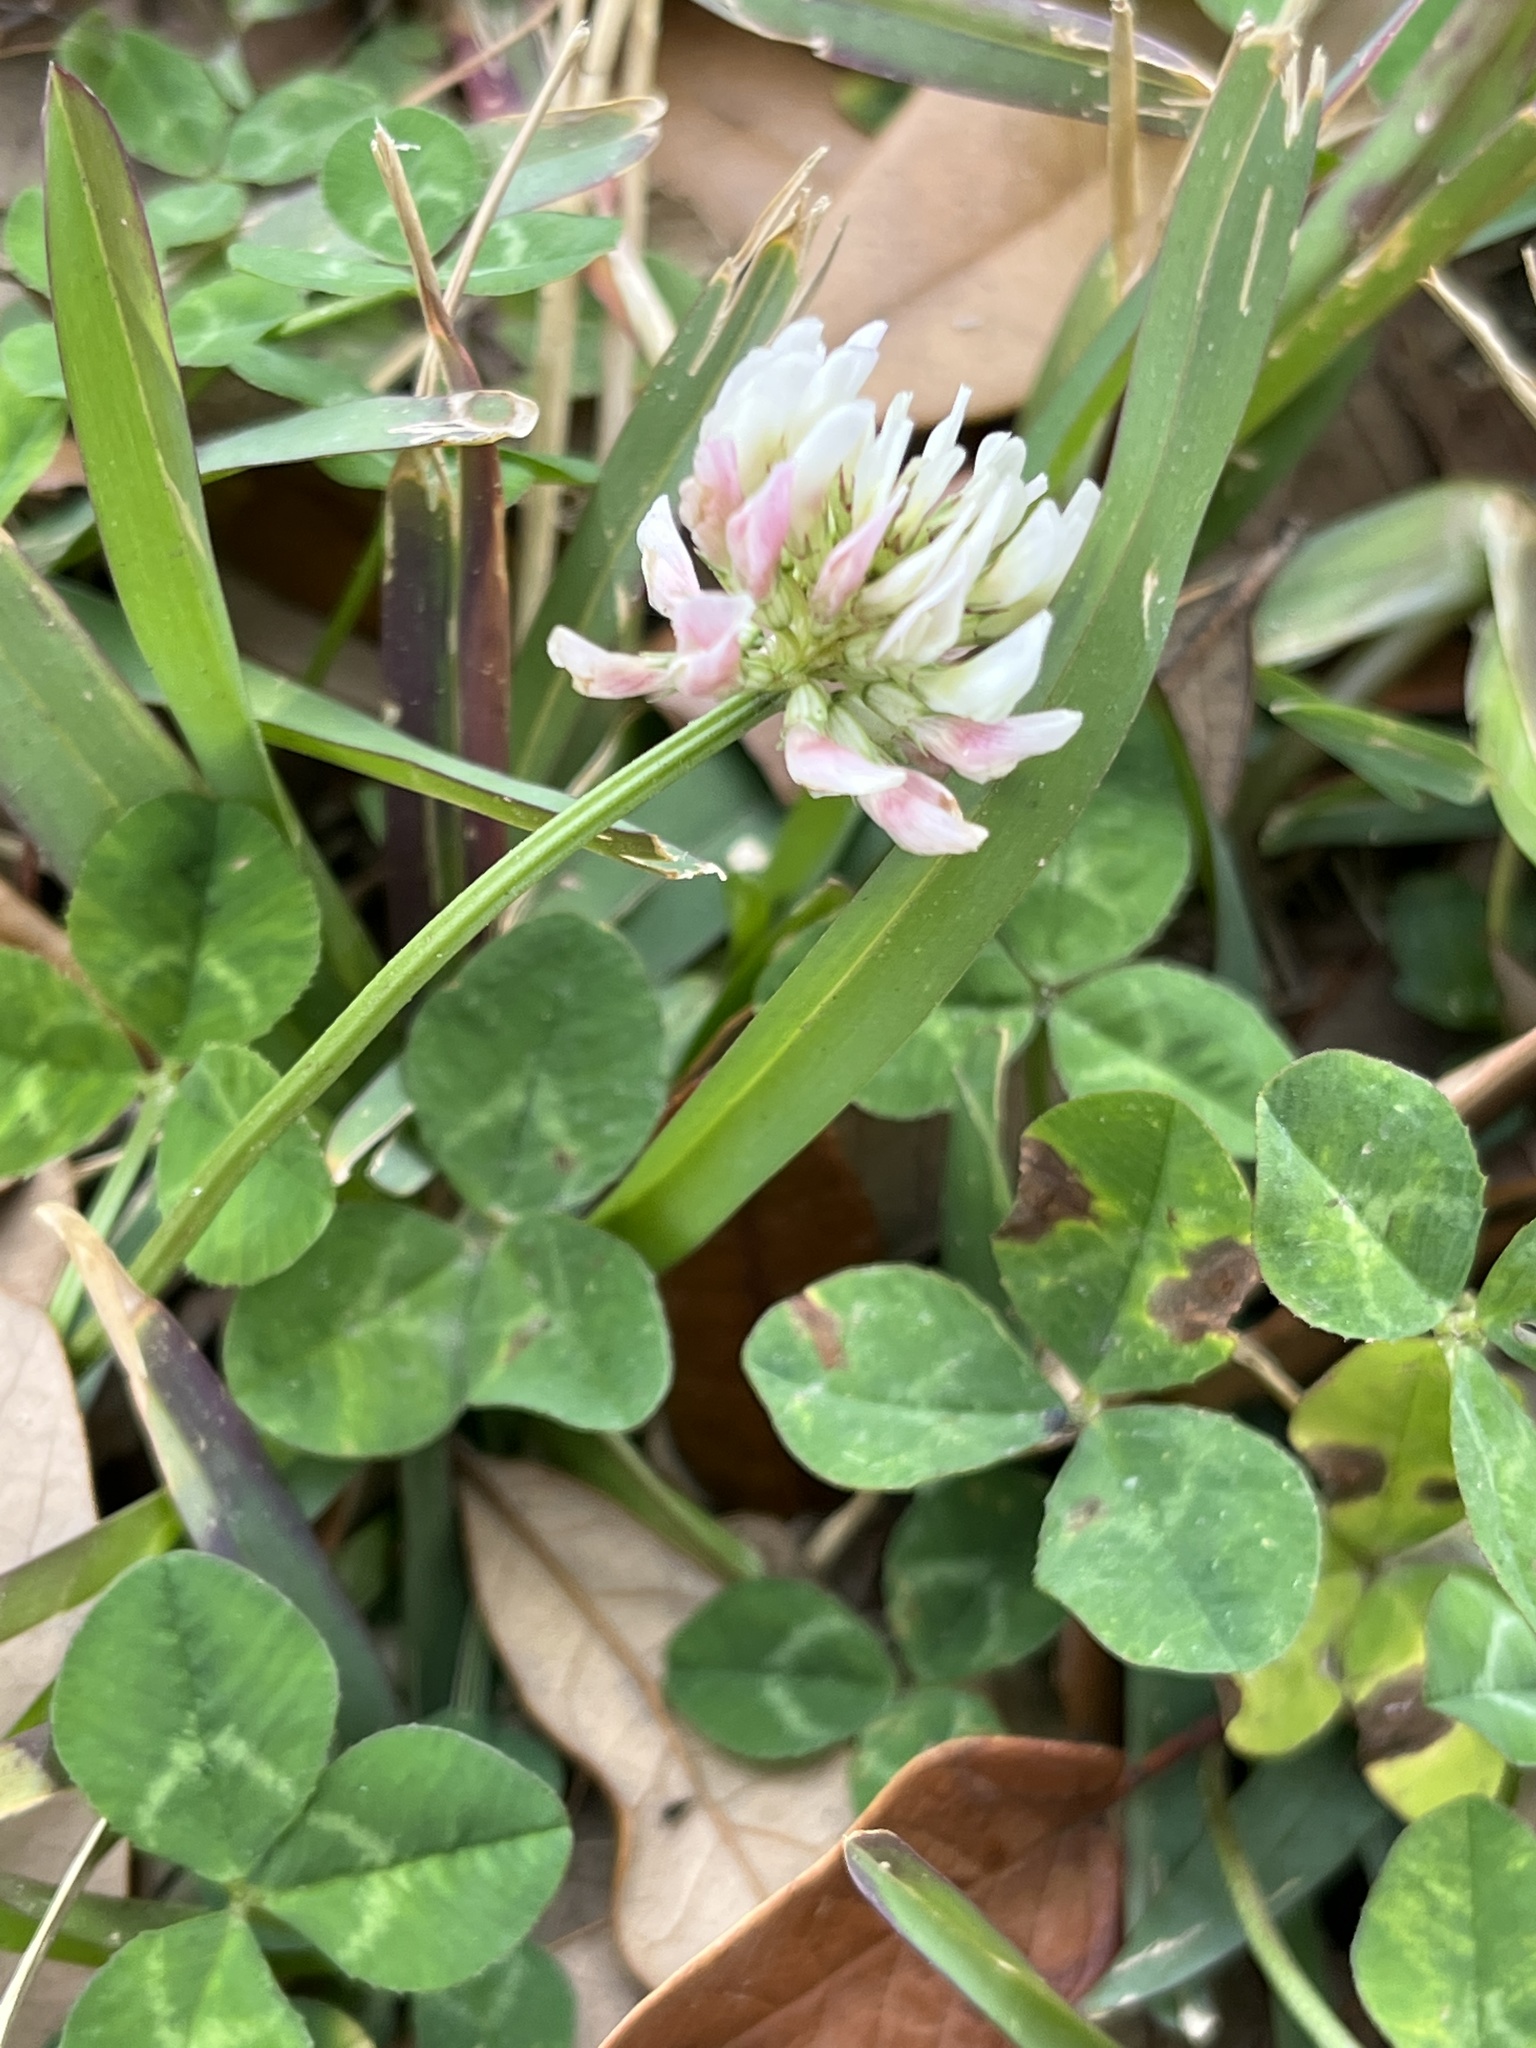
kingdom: Plantae
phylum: Tracheophyta
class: Magnoliopsida
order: Fabales
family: Fabaceae
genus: Trifolium
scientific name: Trifolium repens
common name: White clover
